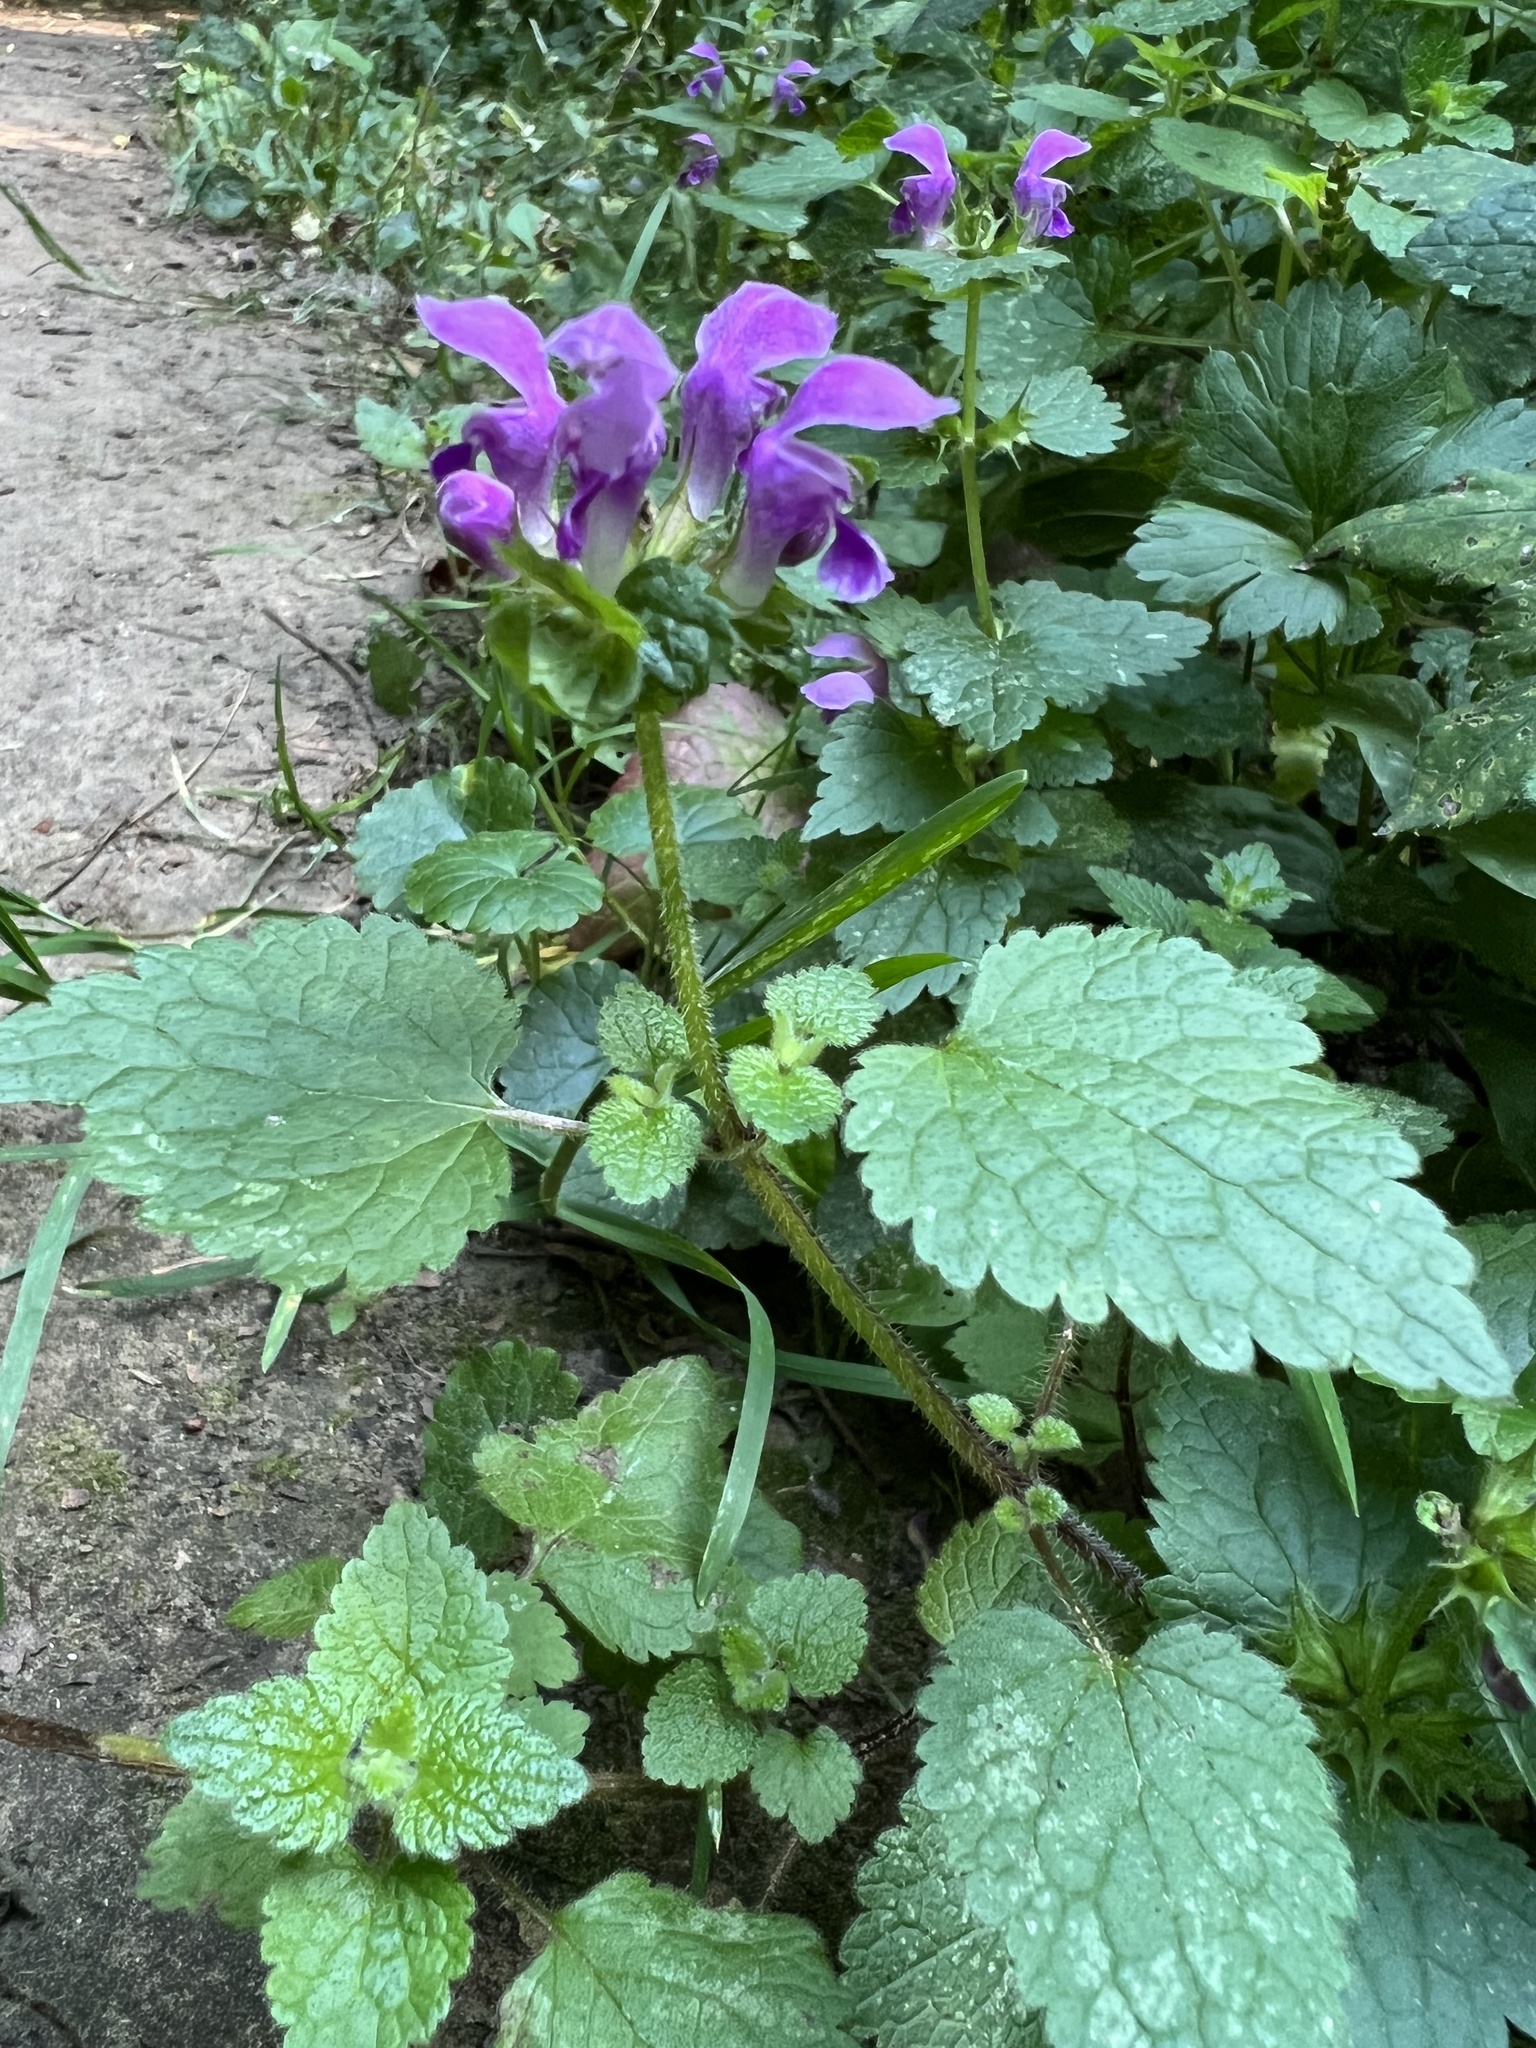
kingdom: Plantae
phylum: Tracheophyta
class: Magnoliopsida
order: Lamiales
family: Lamiaceae
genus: Lamium
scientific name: Lamium maculatum
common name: Spotted dead-nettle
